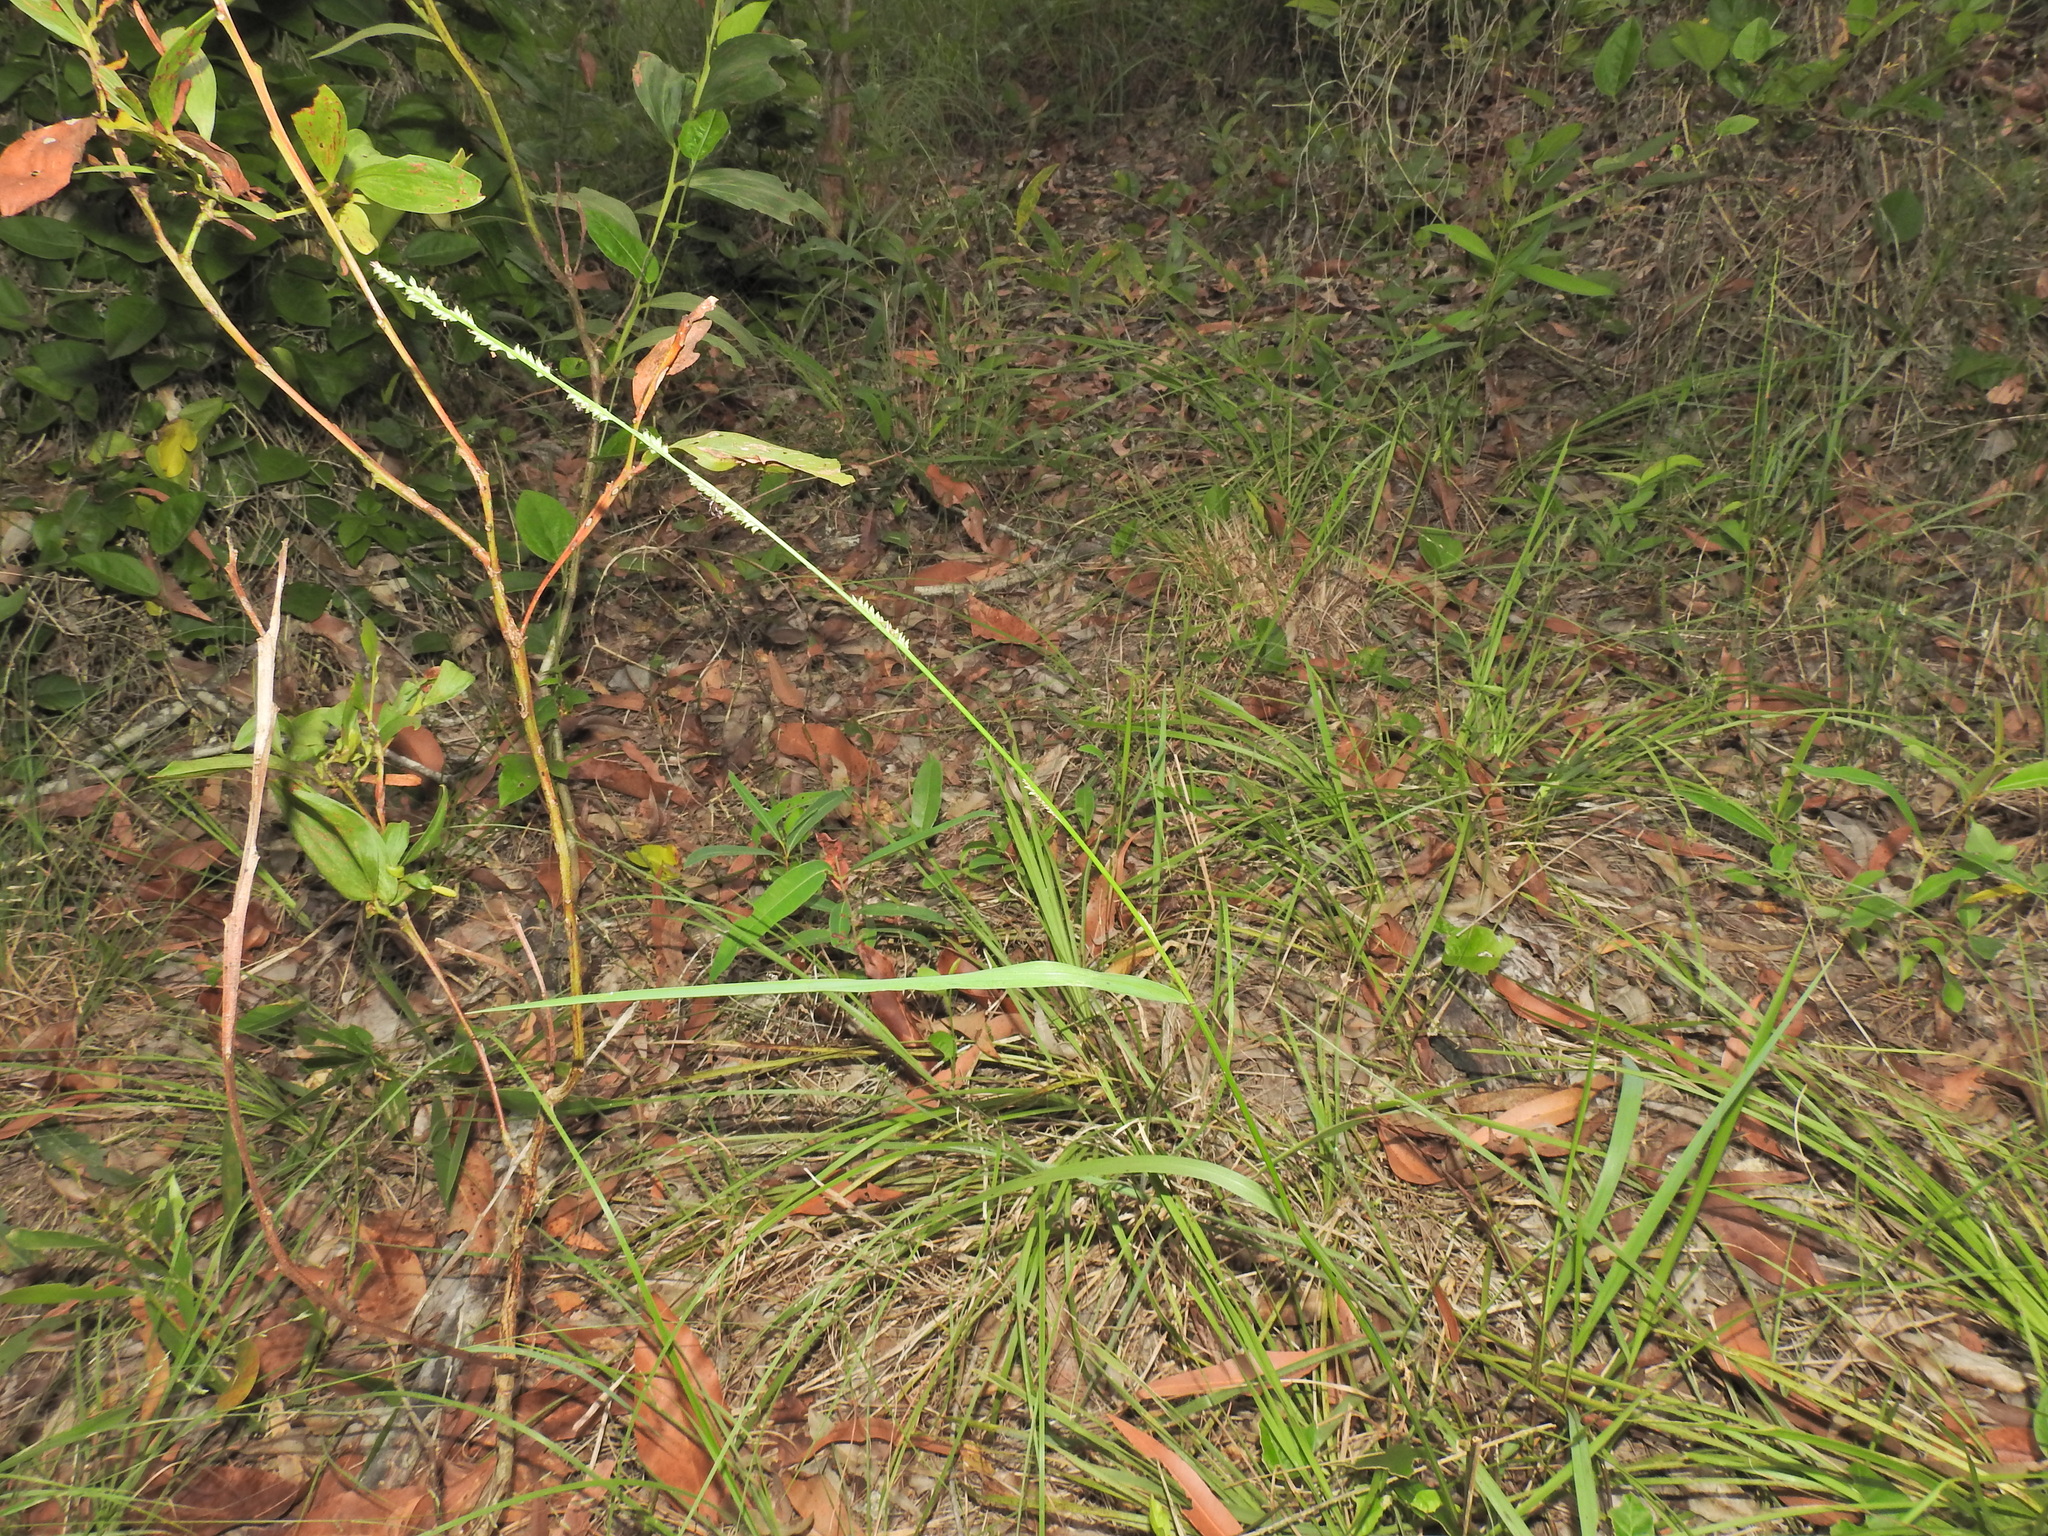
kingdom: Plantae
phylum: Tracheophyta
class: Liliopsida
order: Poales
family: Poaceae
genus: Setaria
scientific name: Setaria gausa
